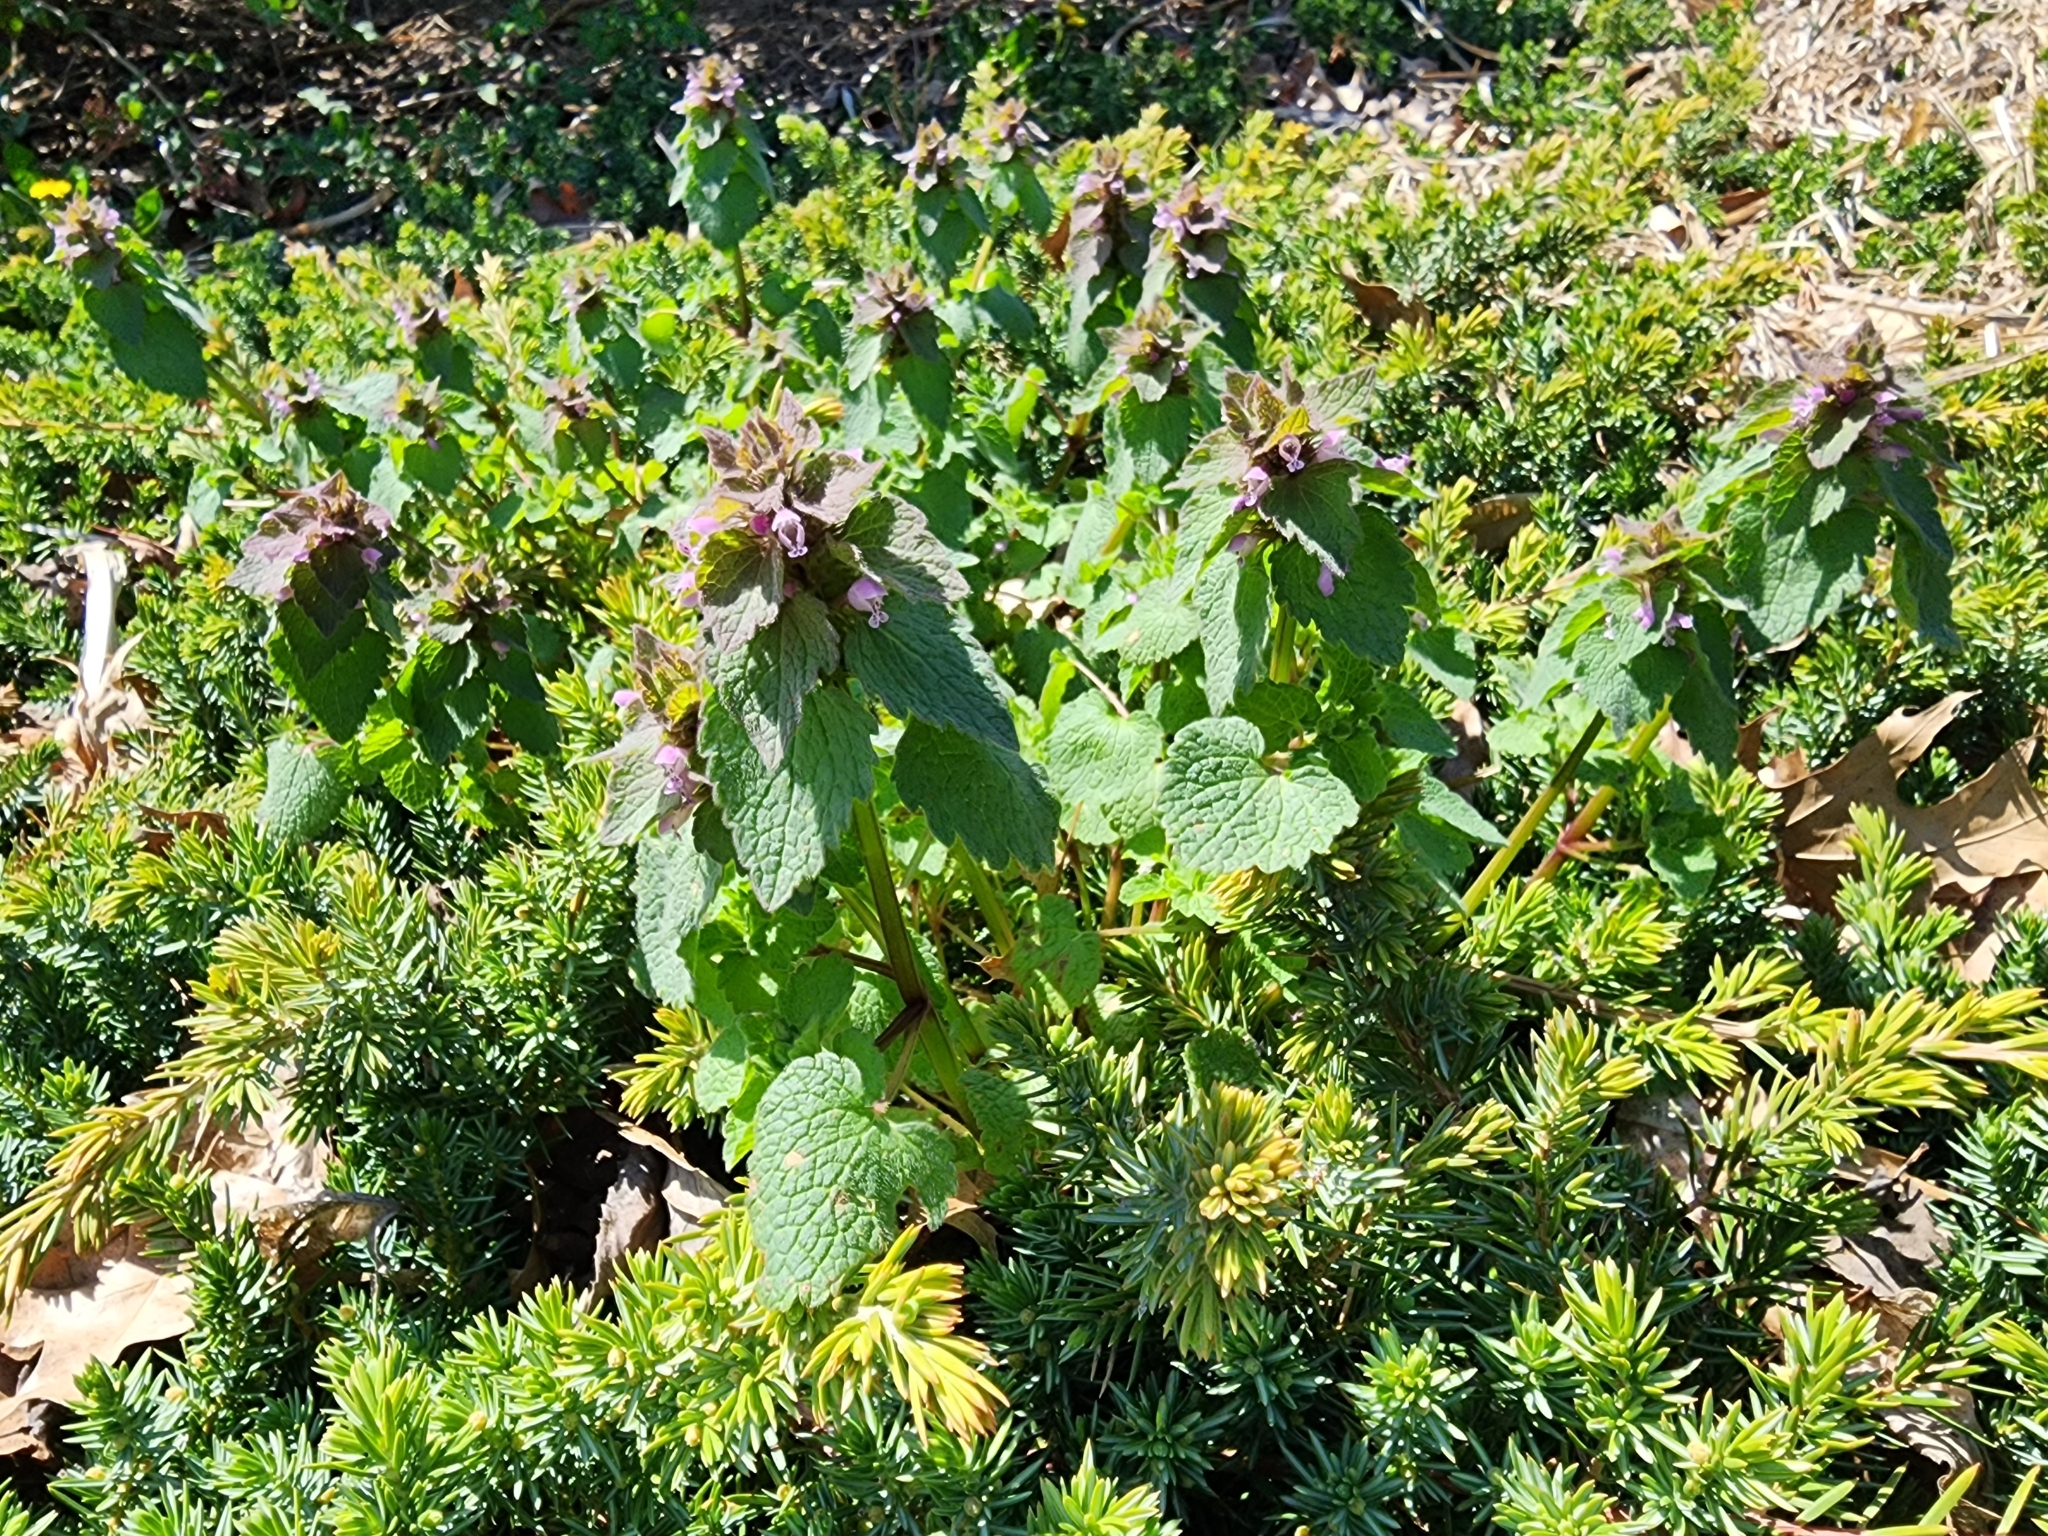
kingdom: Plantae
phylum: Tracheophyta
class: Magnoliopsida
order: Lamiales
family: Lamiaceae
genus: Lamium
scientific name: Lamium purpureum
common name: Red dead-nettle
